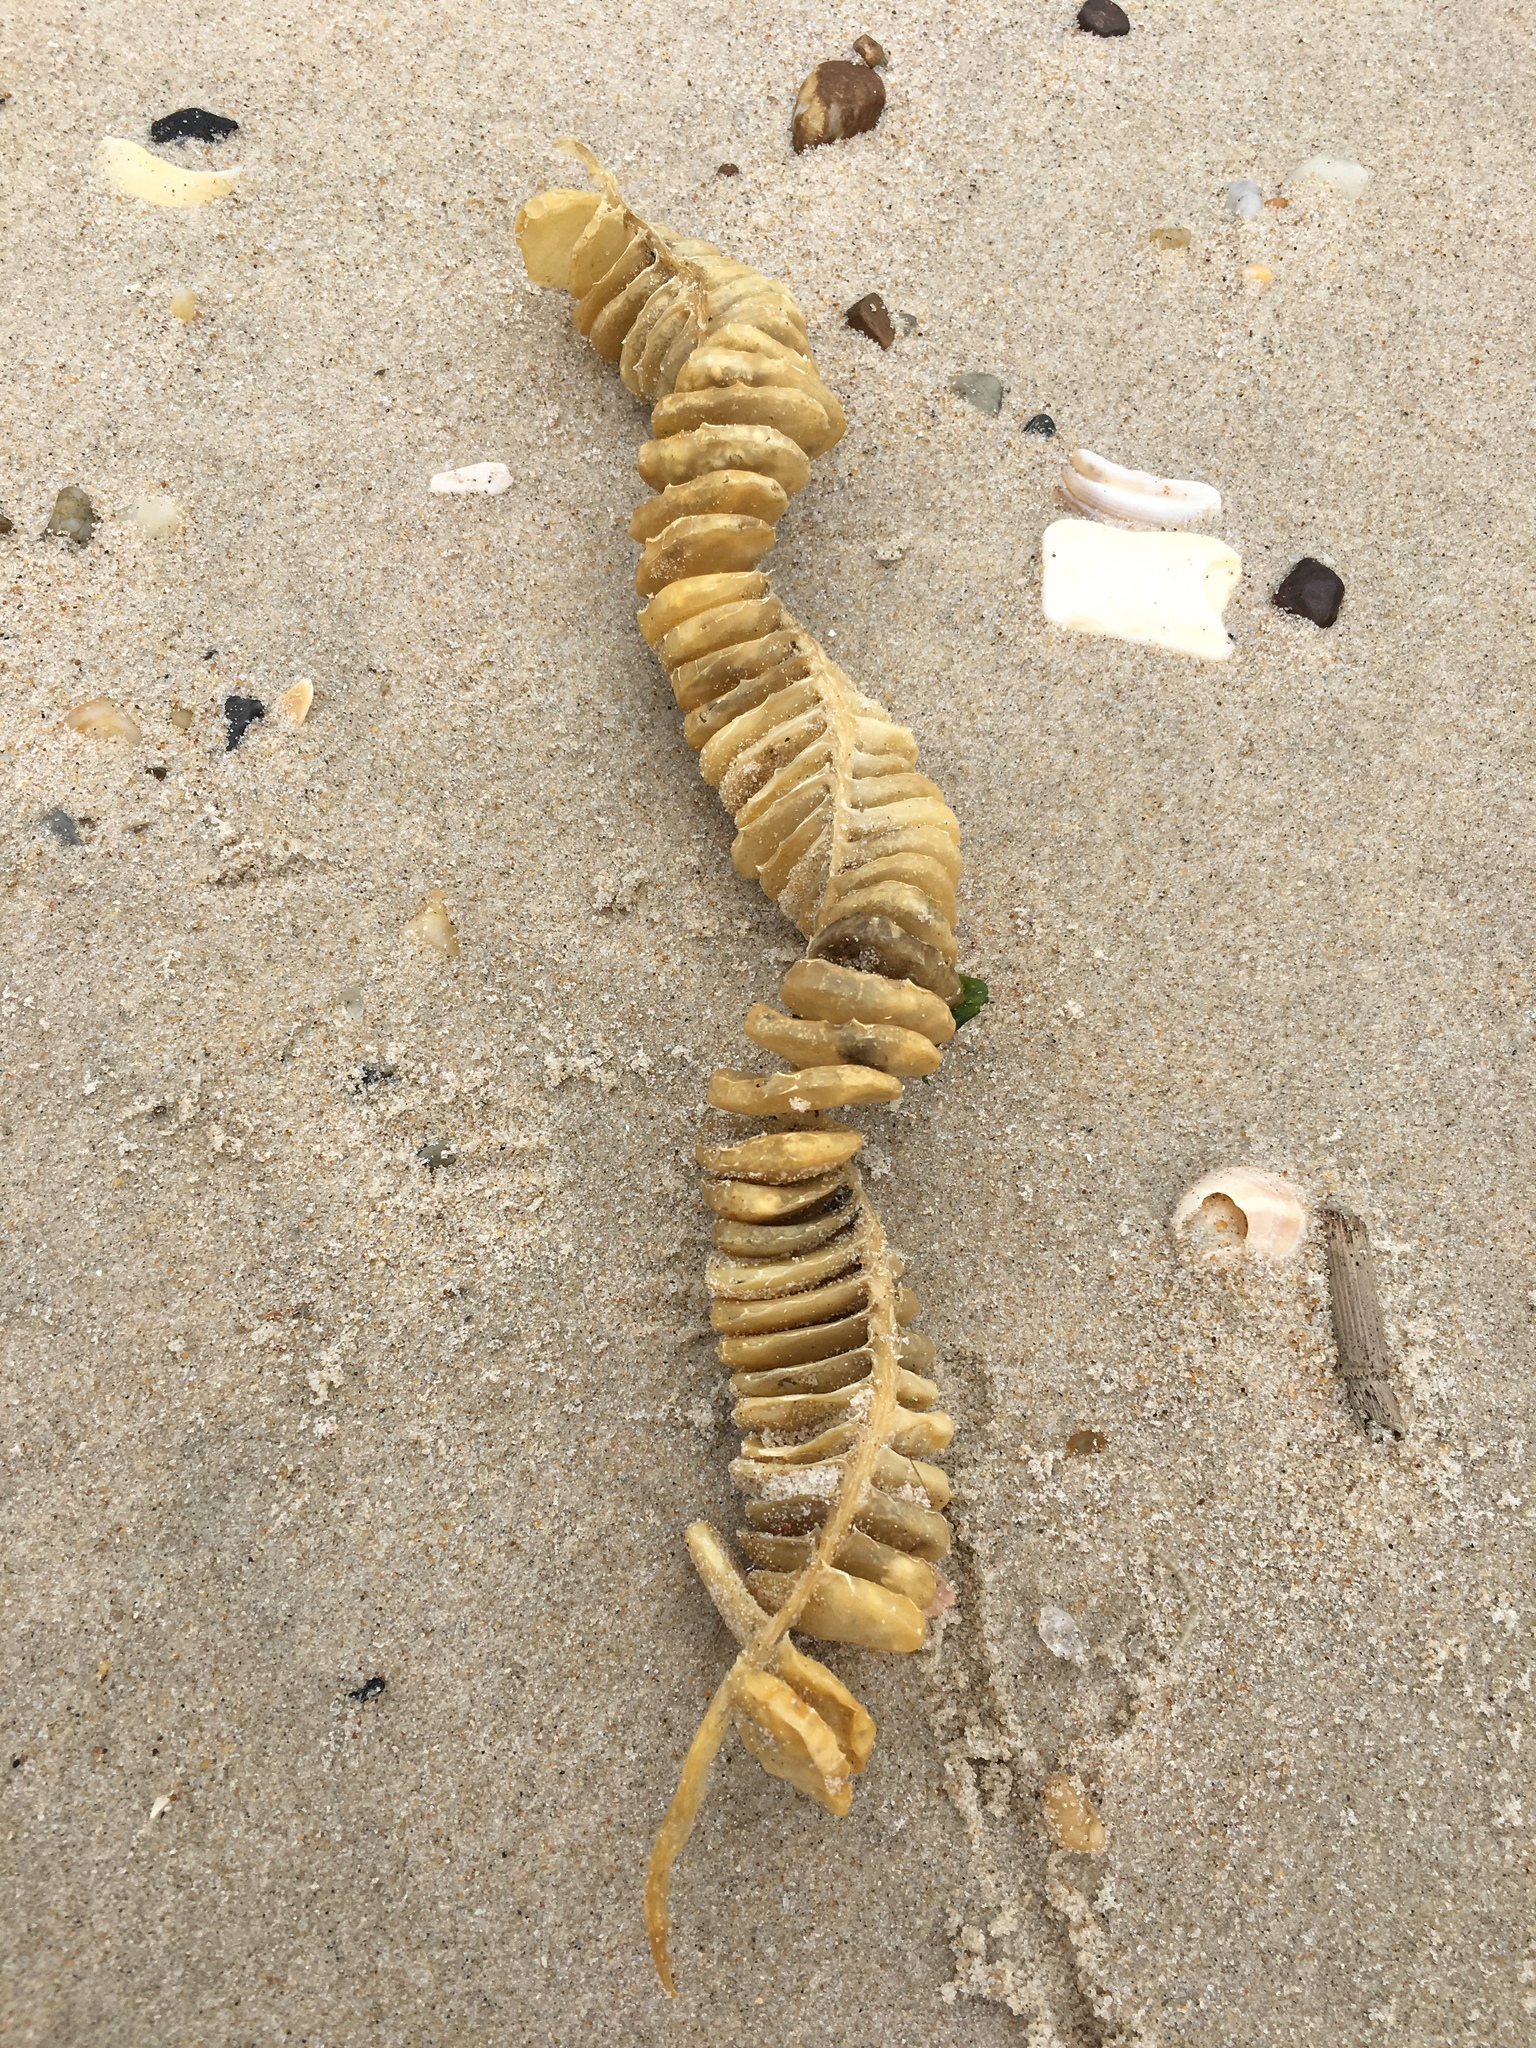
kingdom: Animalia
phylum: Mollusca
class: Gastropoda
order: Neogastropoda
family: Busyconidae
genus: Busycon
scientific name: Busycon carica
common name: Knobbed whelk
